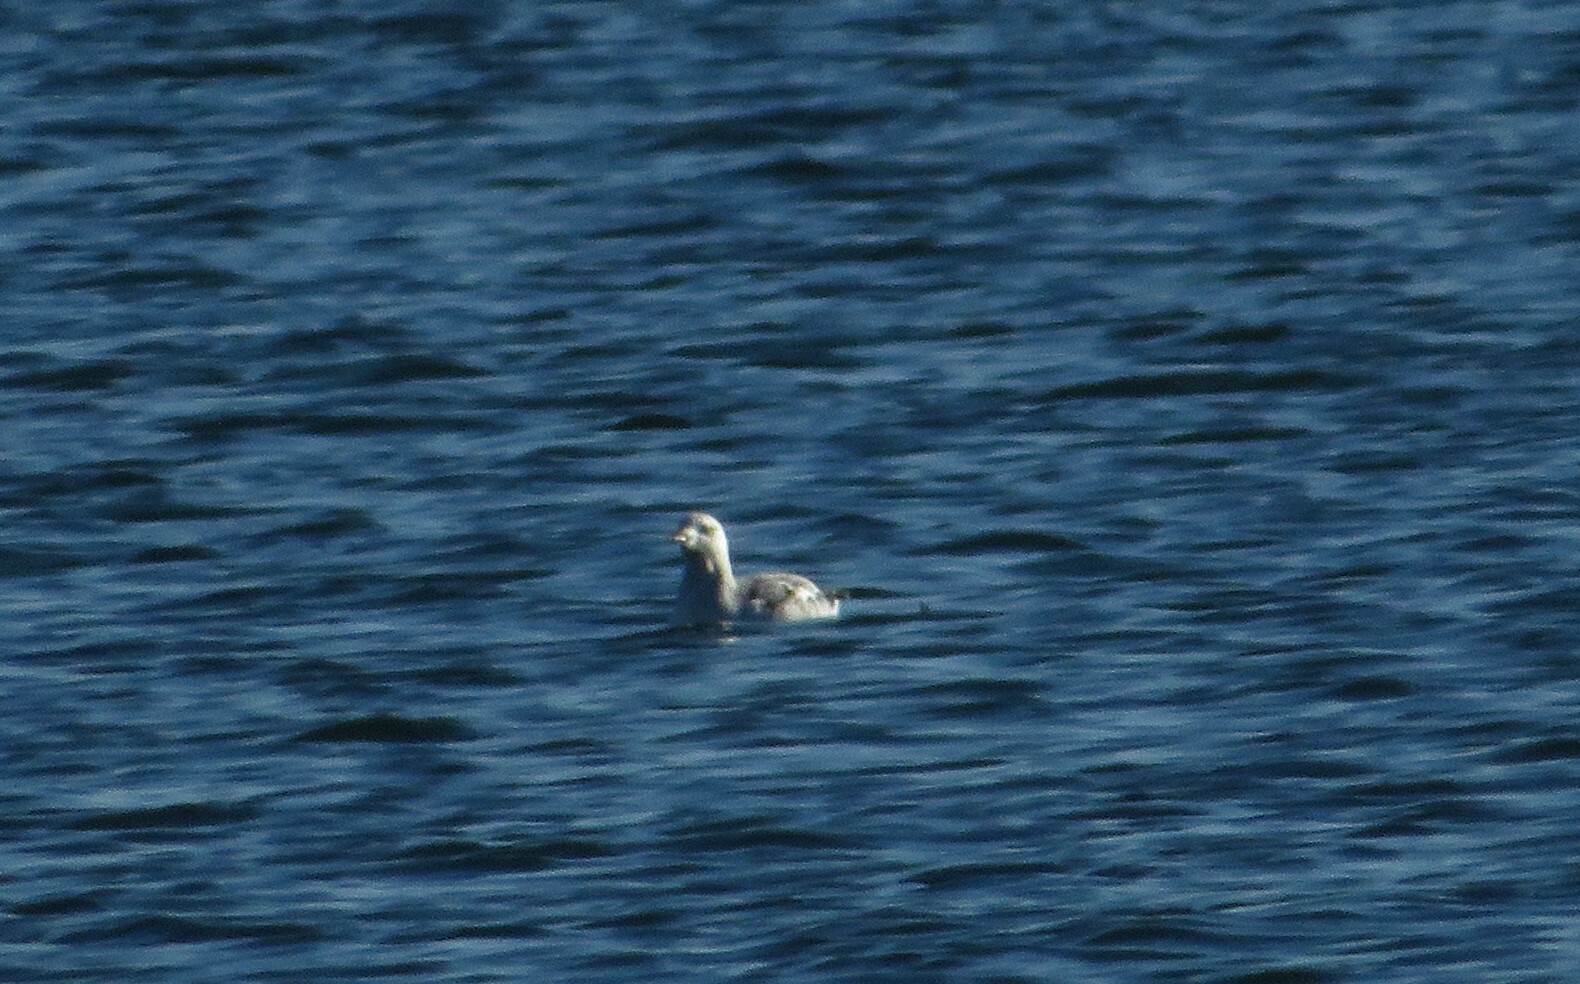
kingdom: Animalia
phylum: Chordata
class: Aves
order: Charadriiformes
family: Alcidae
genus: Cepphus
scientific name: Cepphus grylle
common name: Black guillemot
